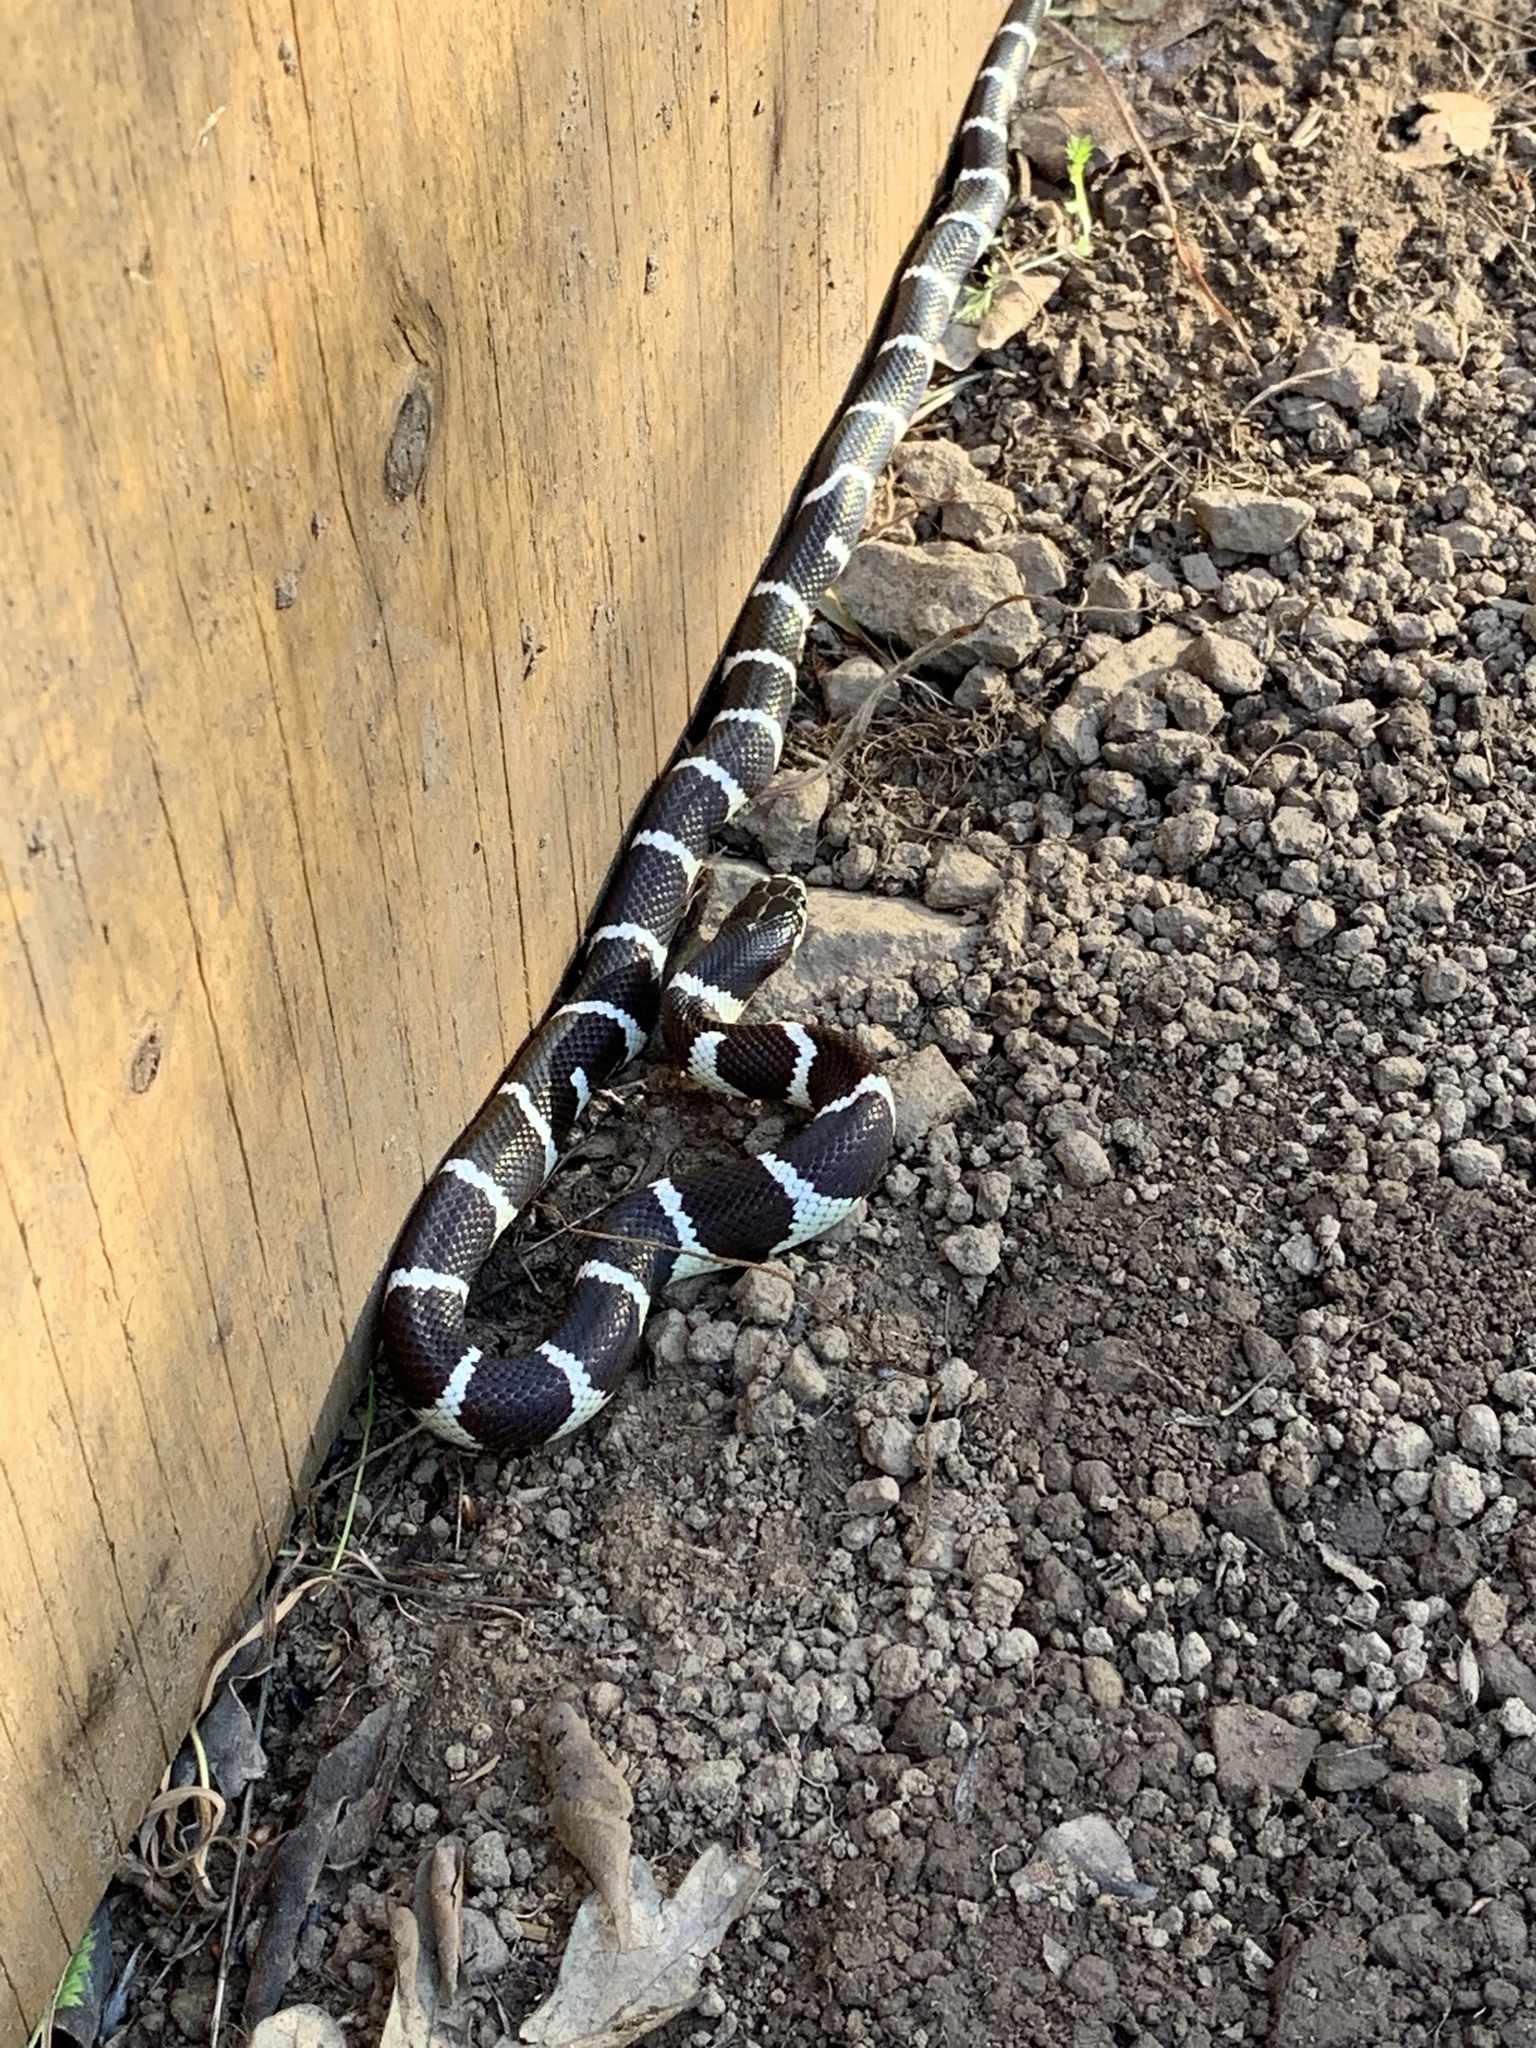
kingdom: Animalia
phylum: Chordata
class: Squamata
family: Colubridae
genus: Lampropeltis
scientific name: Lampropeltis californiae
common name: California kingsnake
